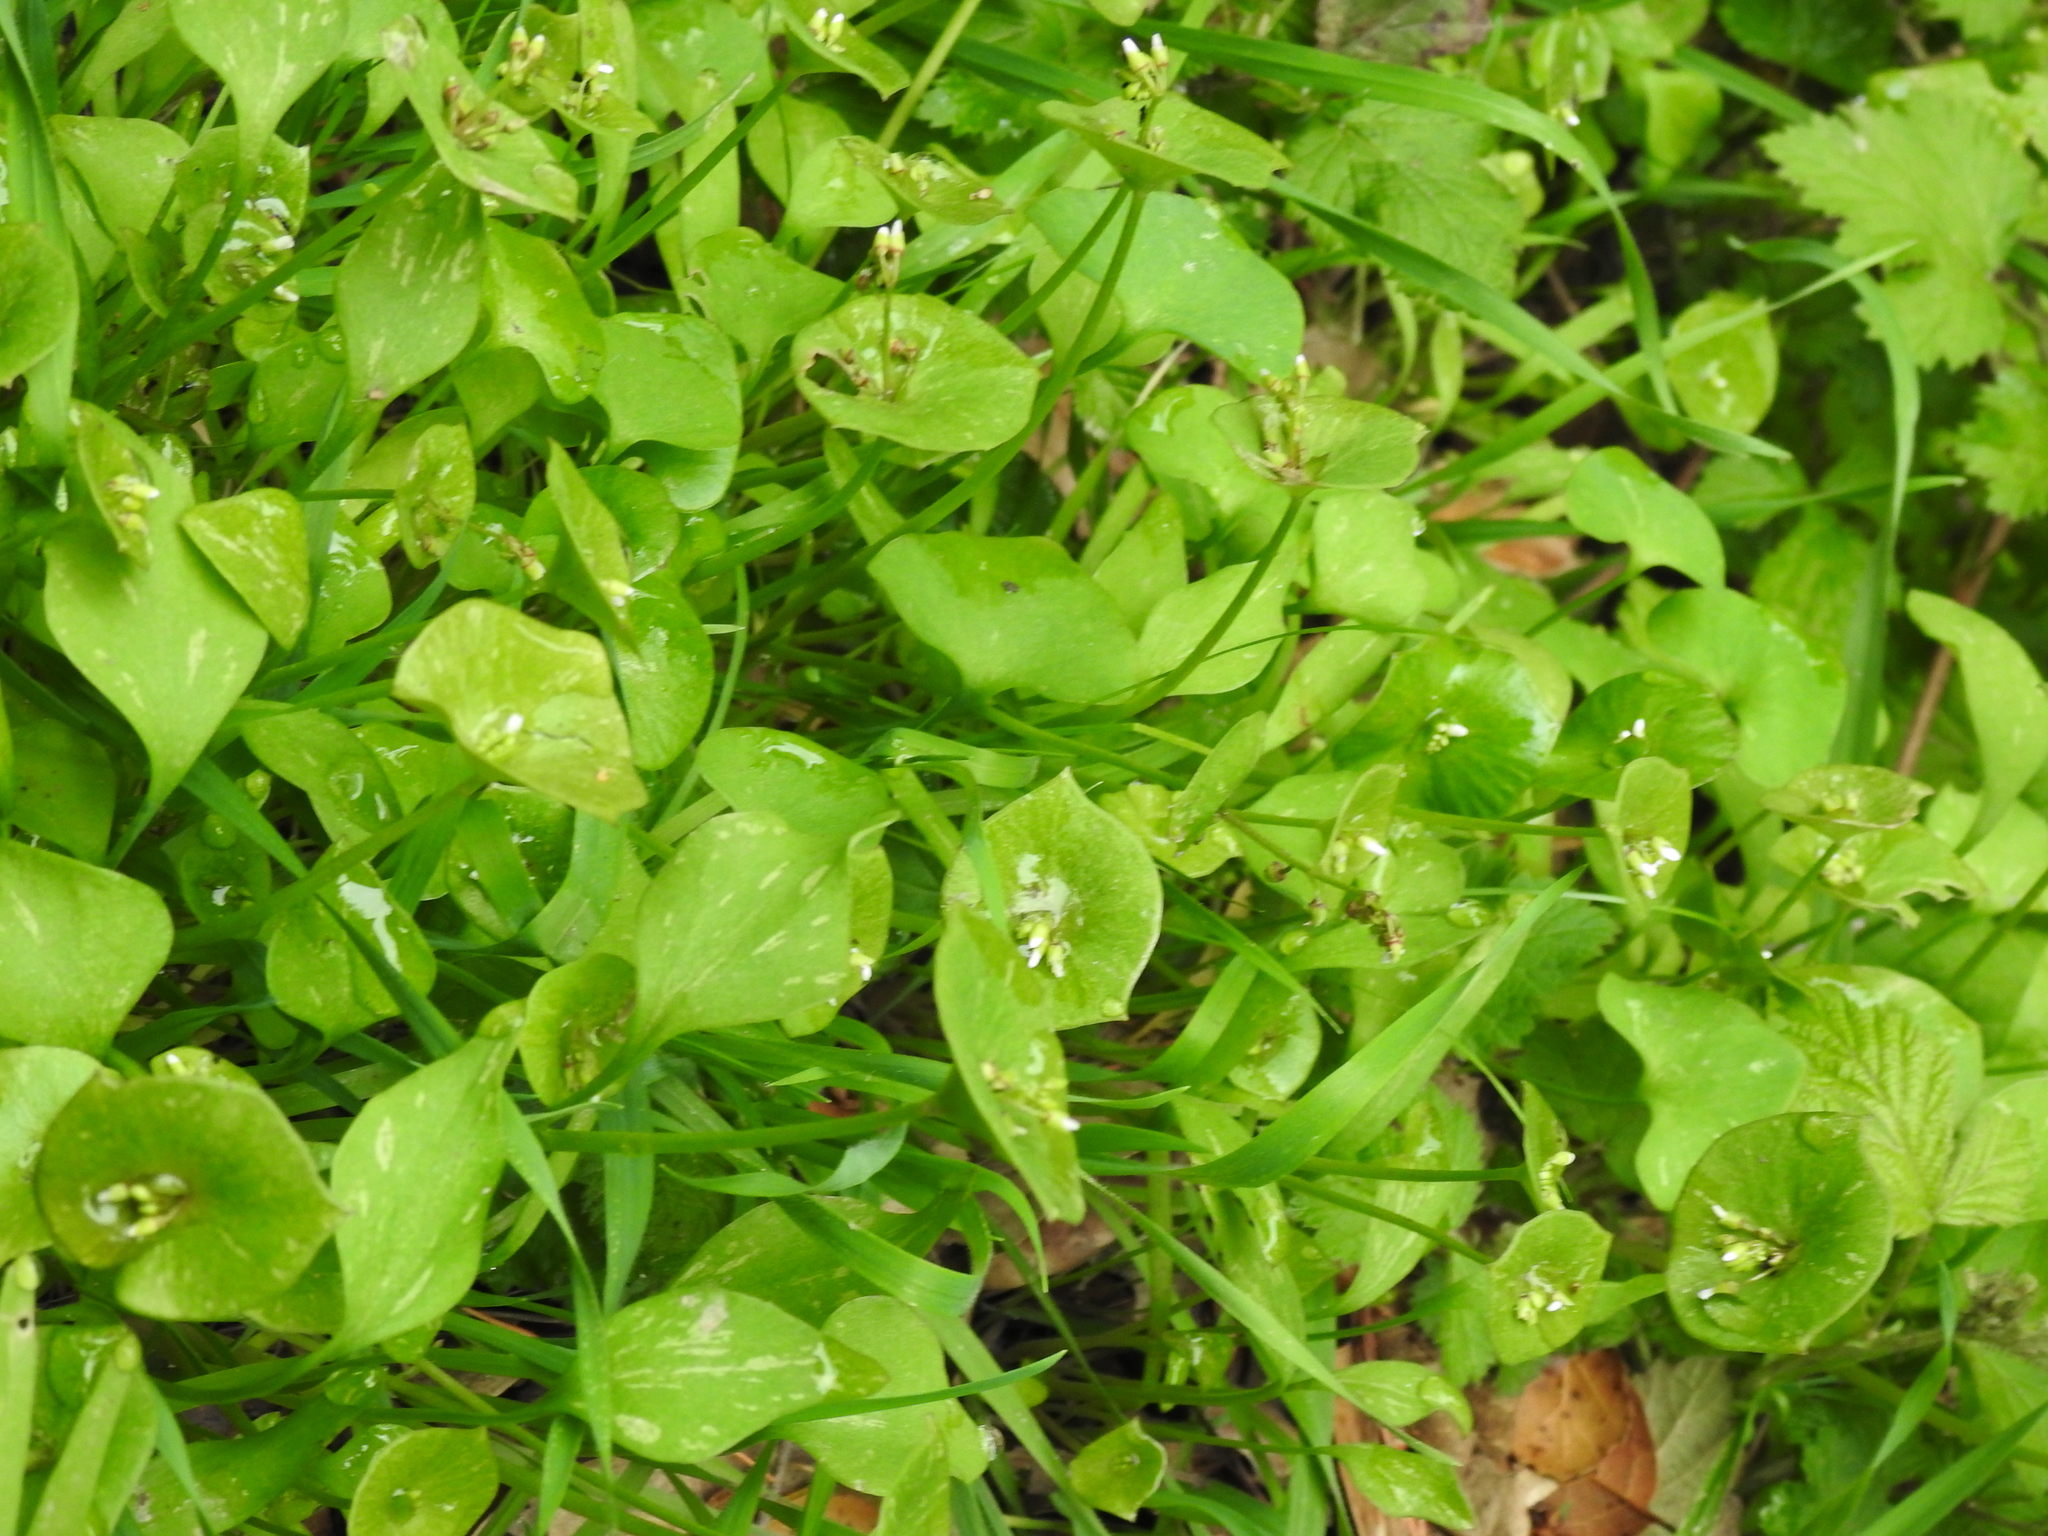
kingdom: Plantae
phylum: Tracheophyta
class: Magnoliopsida
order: Caryophyllales
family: Montiaceae
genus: Claytonia
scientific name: Claytonia perfoliata
